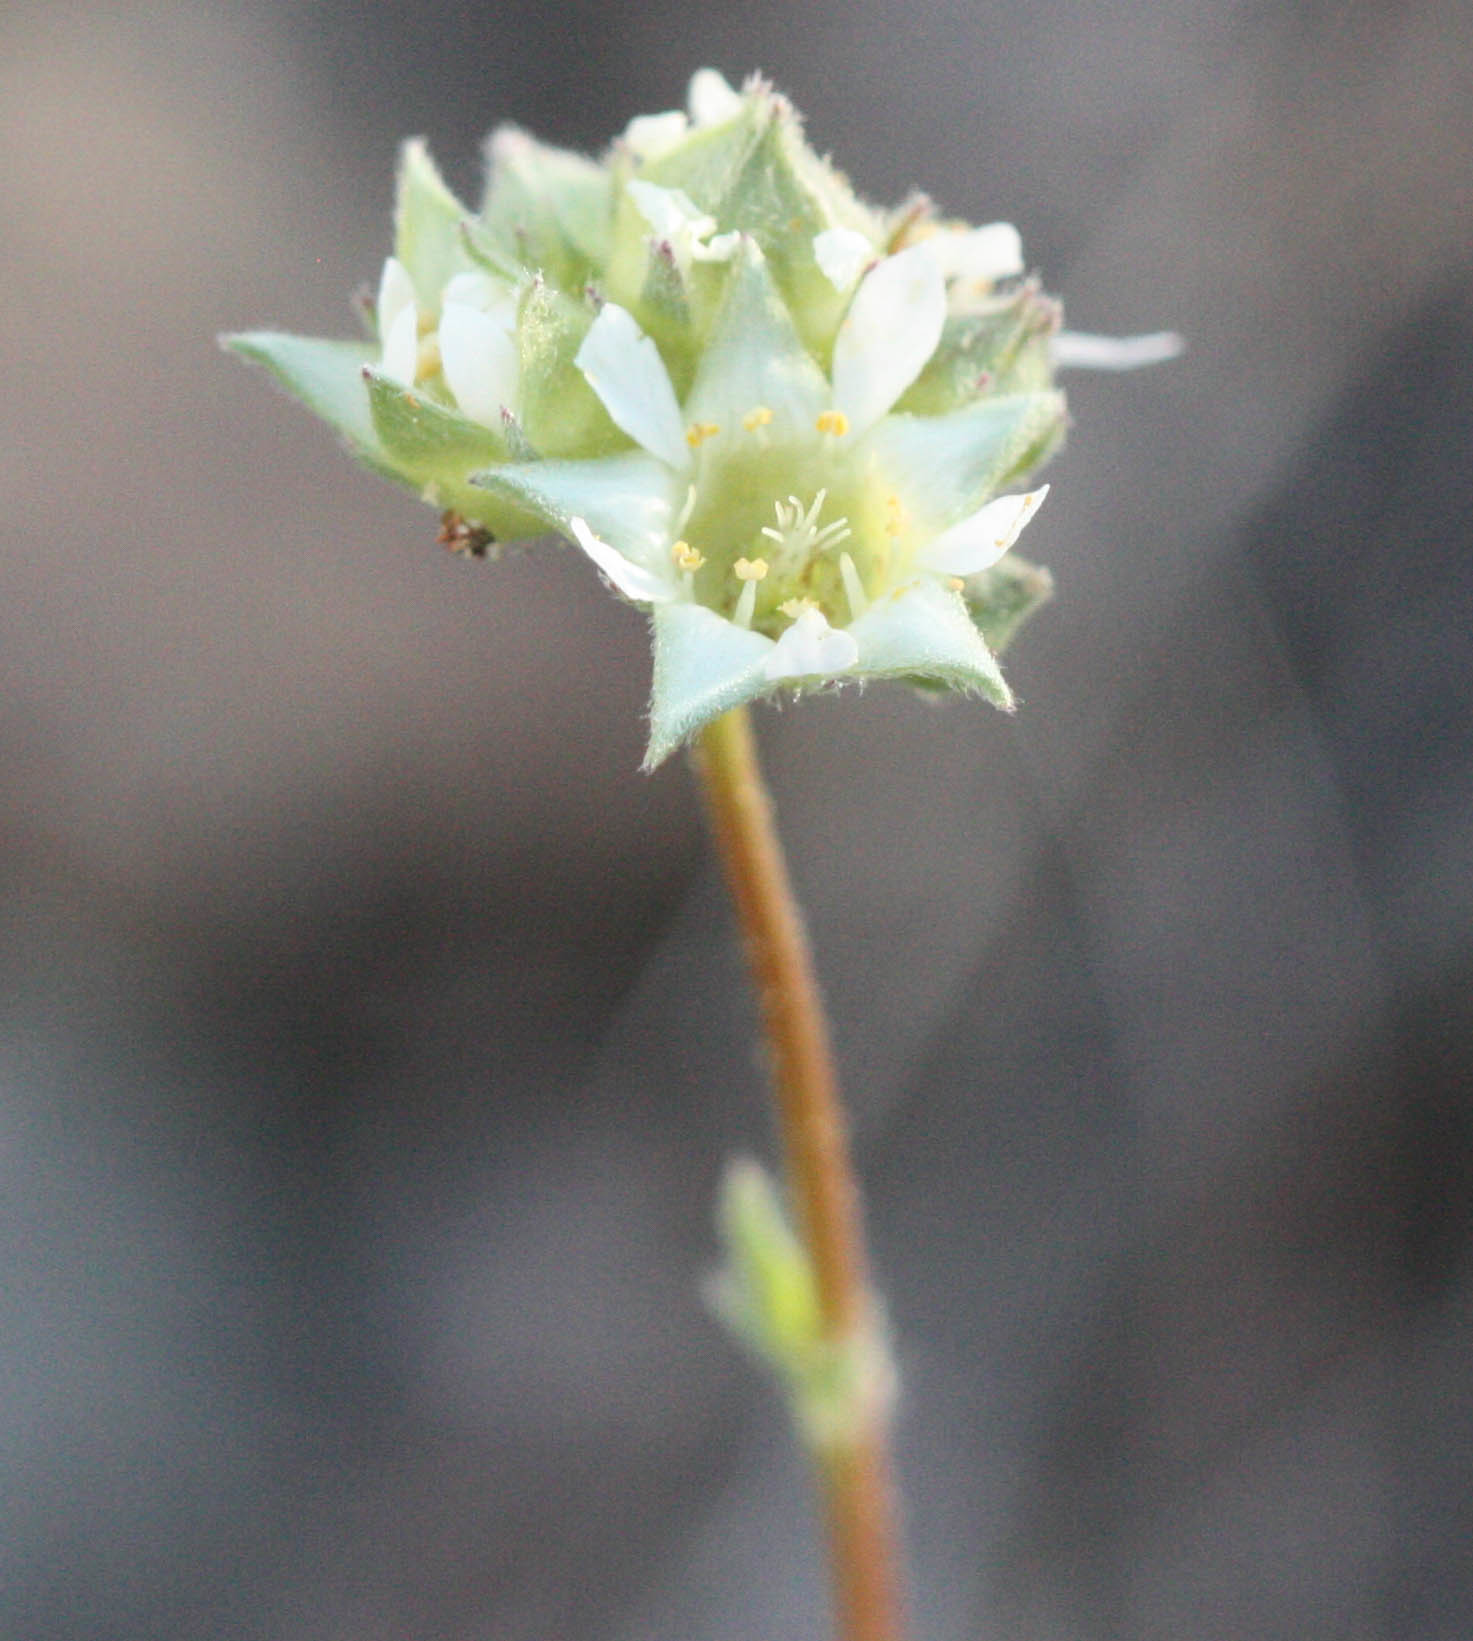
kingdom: Plantae
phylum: Tracheophyta
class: Magnoliopsida
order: Rosales
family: Rosaceae
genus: Potentilla
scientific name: Potentilla tilingii
